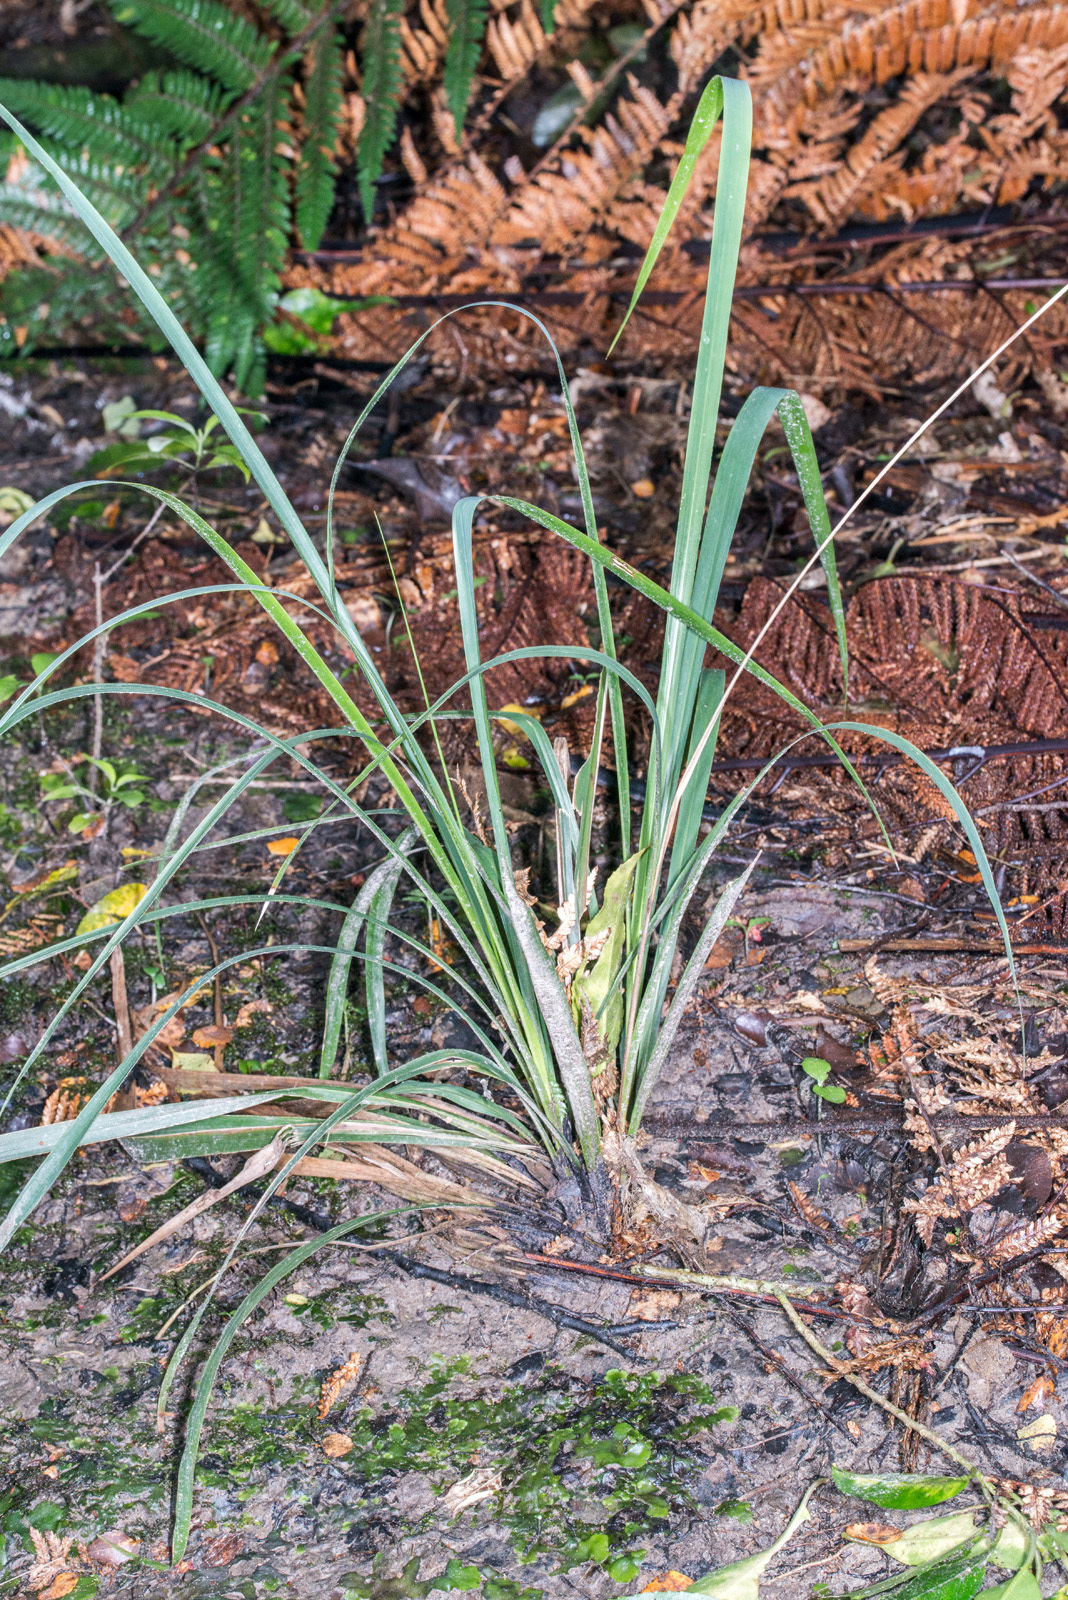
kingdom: Plantae
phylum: Tracheophyta
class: Liliopsida
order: Poales
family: Poaceae
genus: Ehrharta
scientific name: Ehrharta diplax
